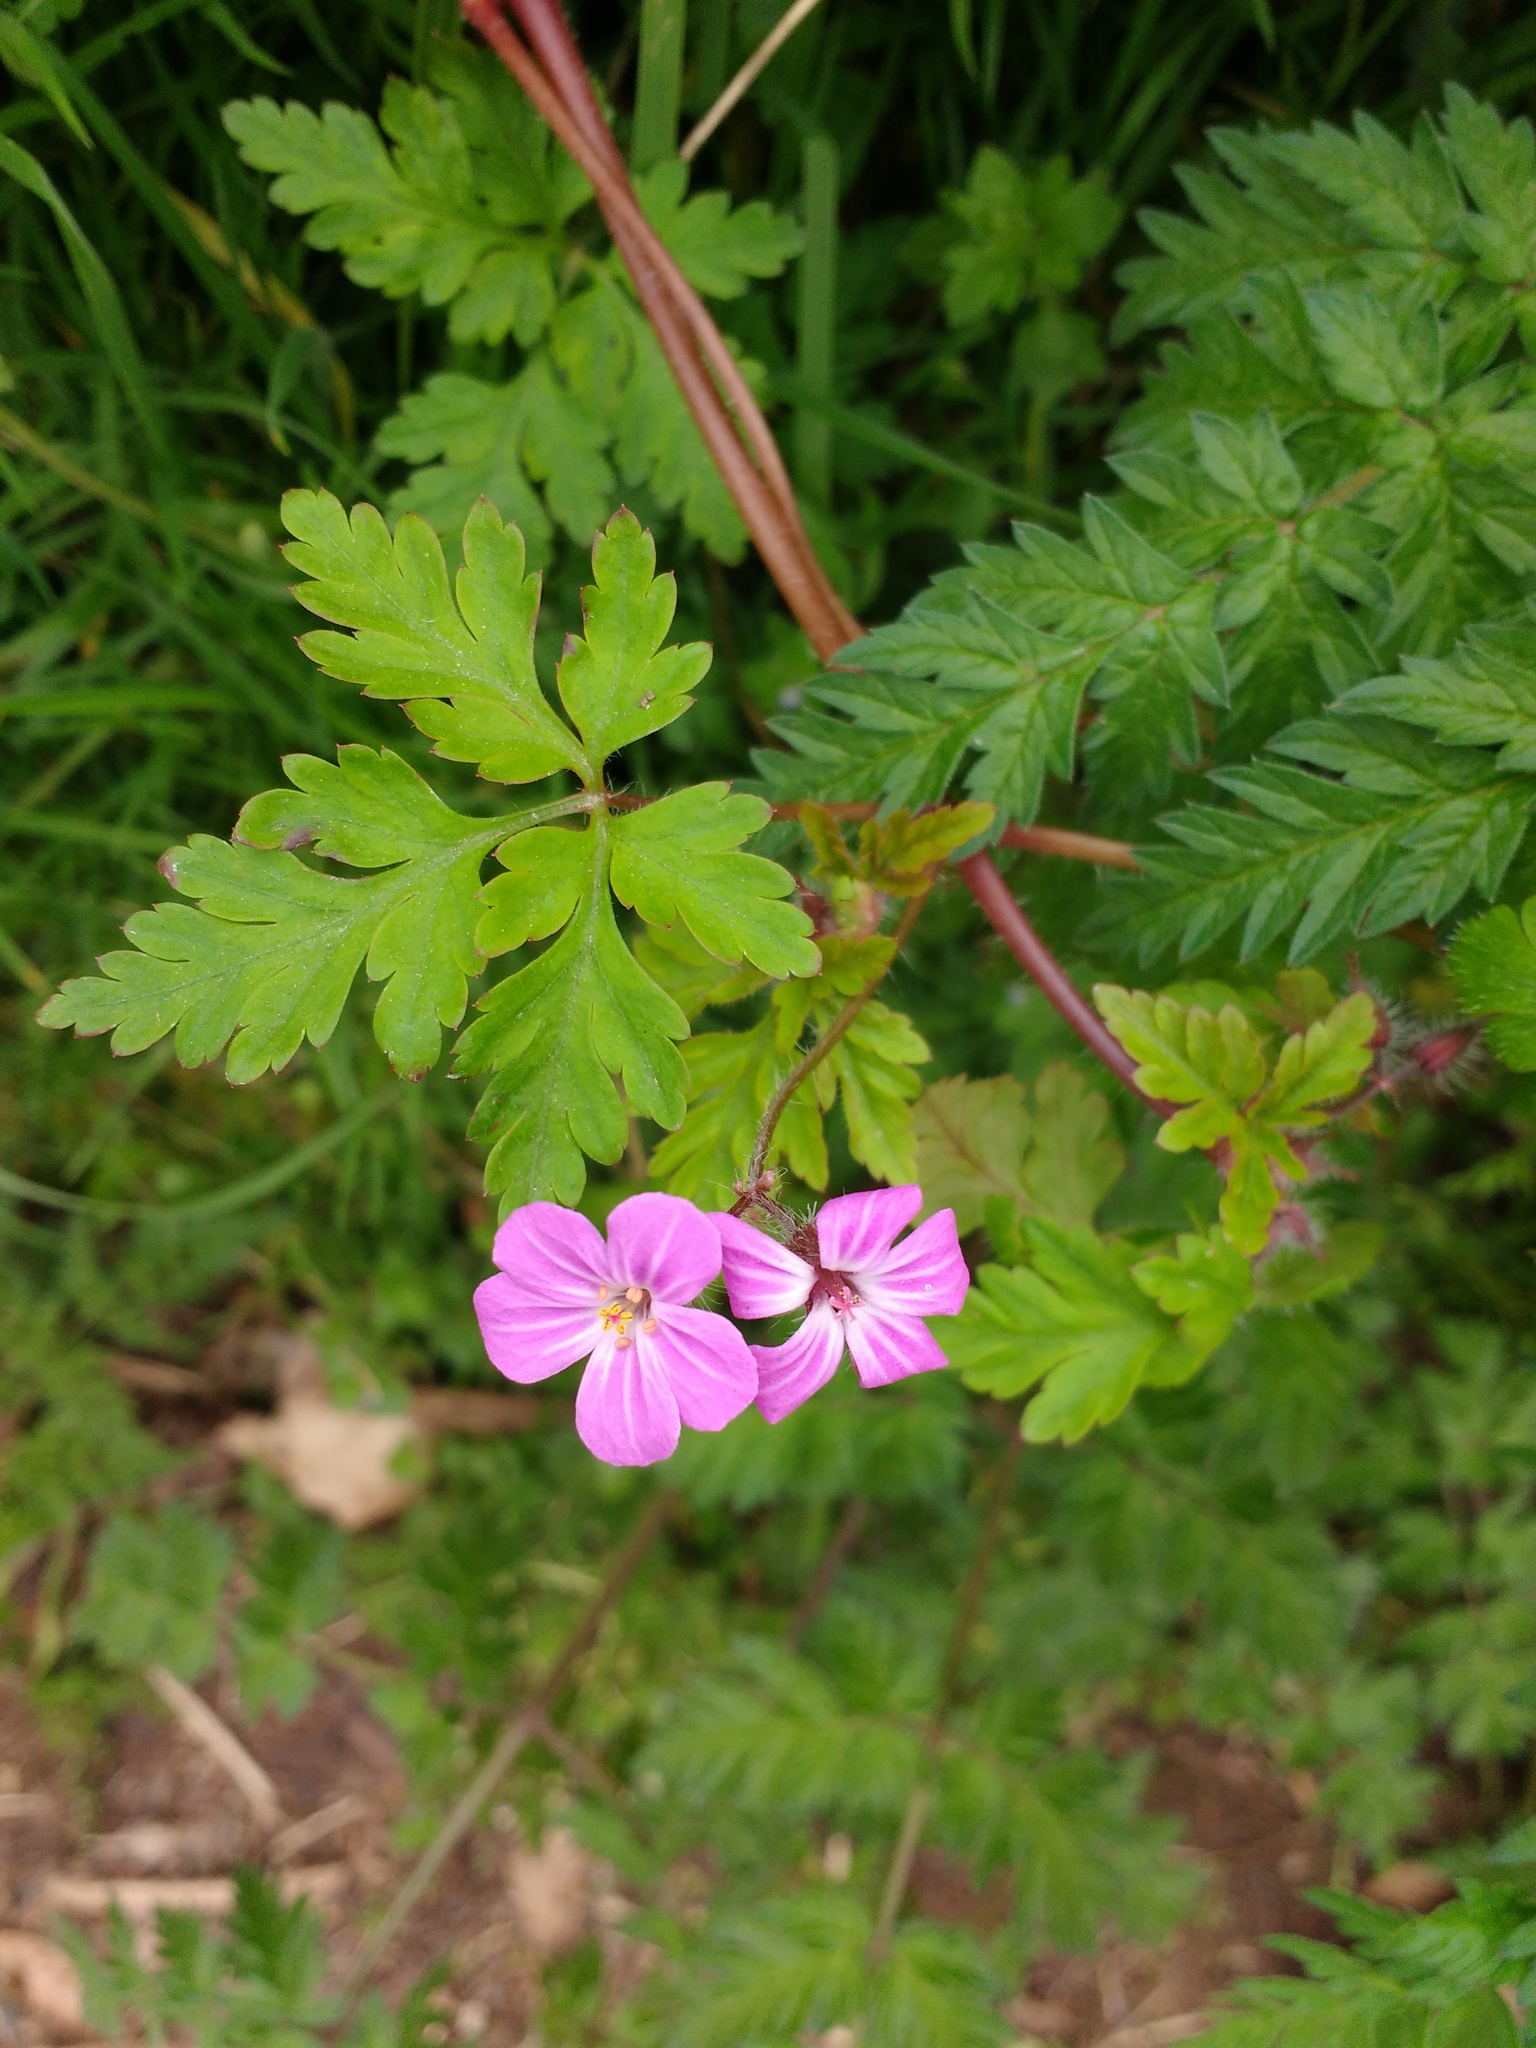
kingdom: Plantae
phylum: Tracheophyta
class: Magnoliopsida
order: Geraniales
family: Geraniaceae
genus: Geranium
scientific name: Geranium robertianum
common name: Herb-robert
